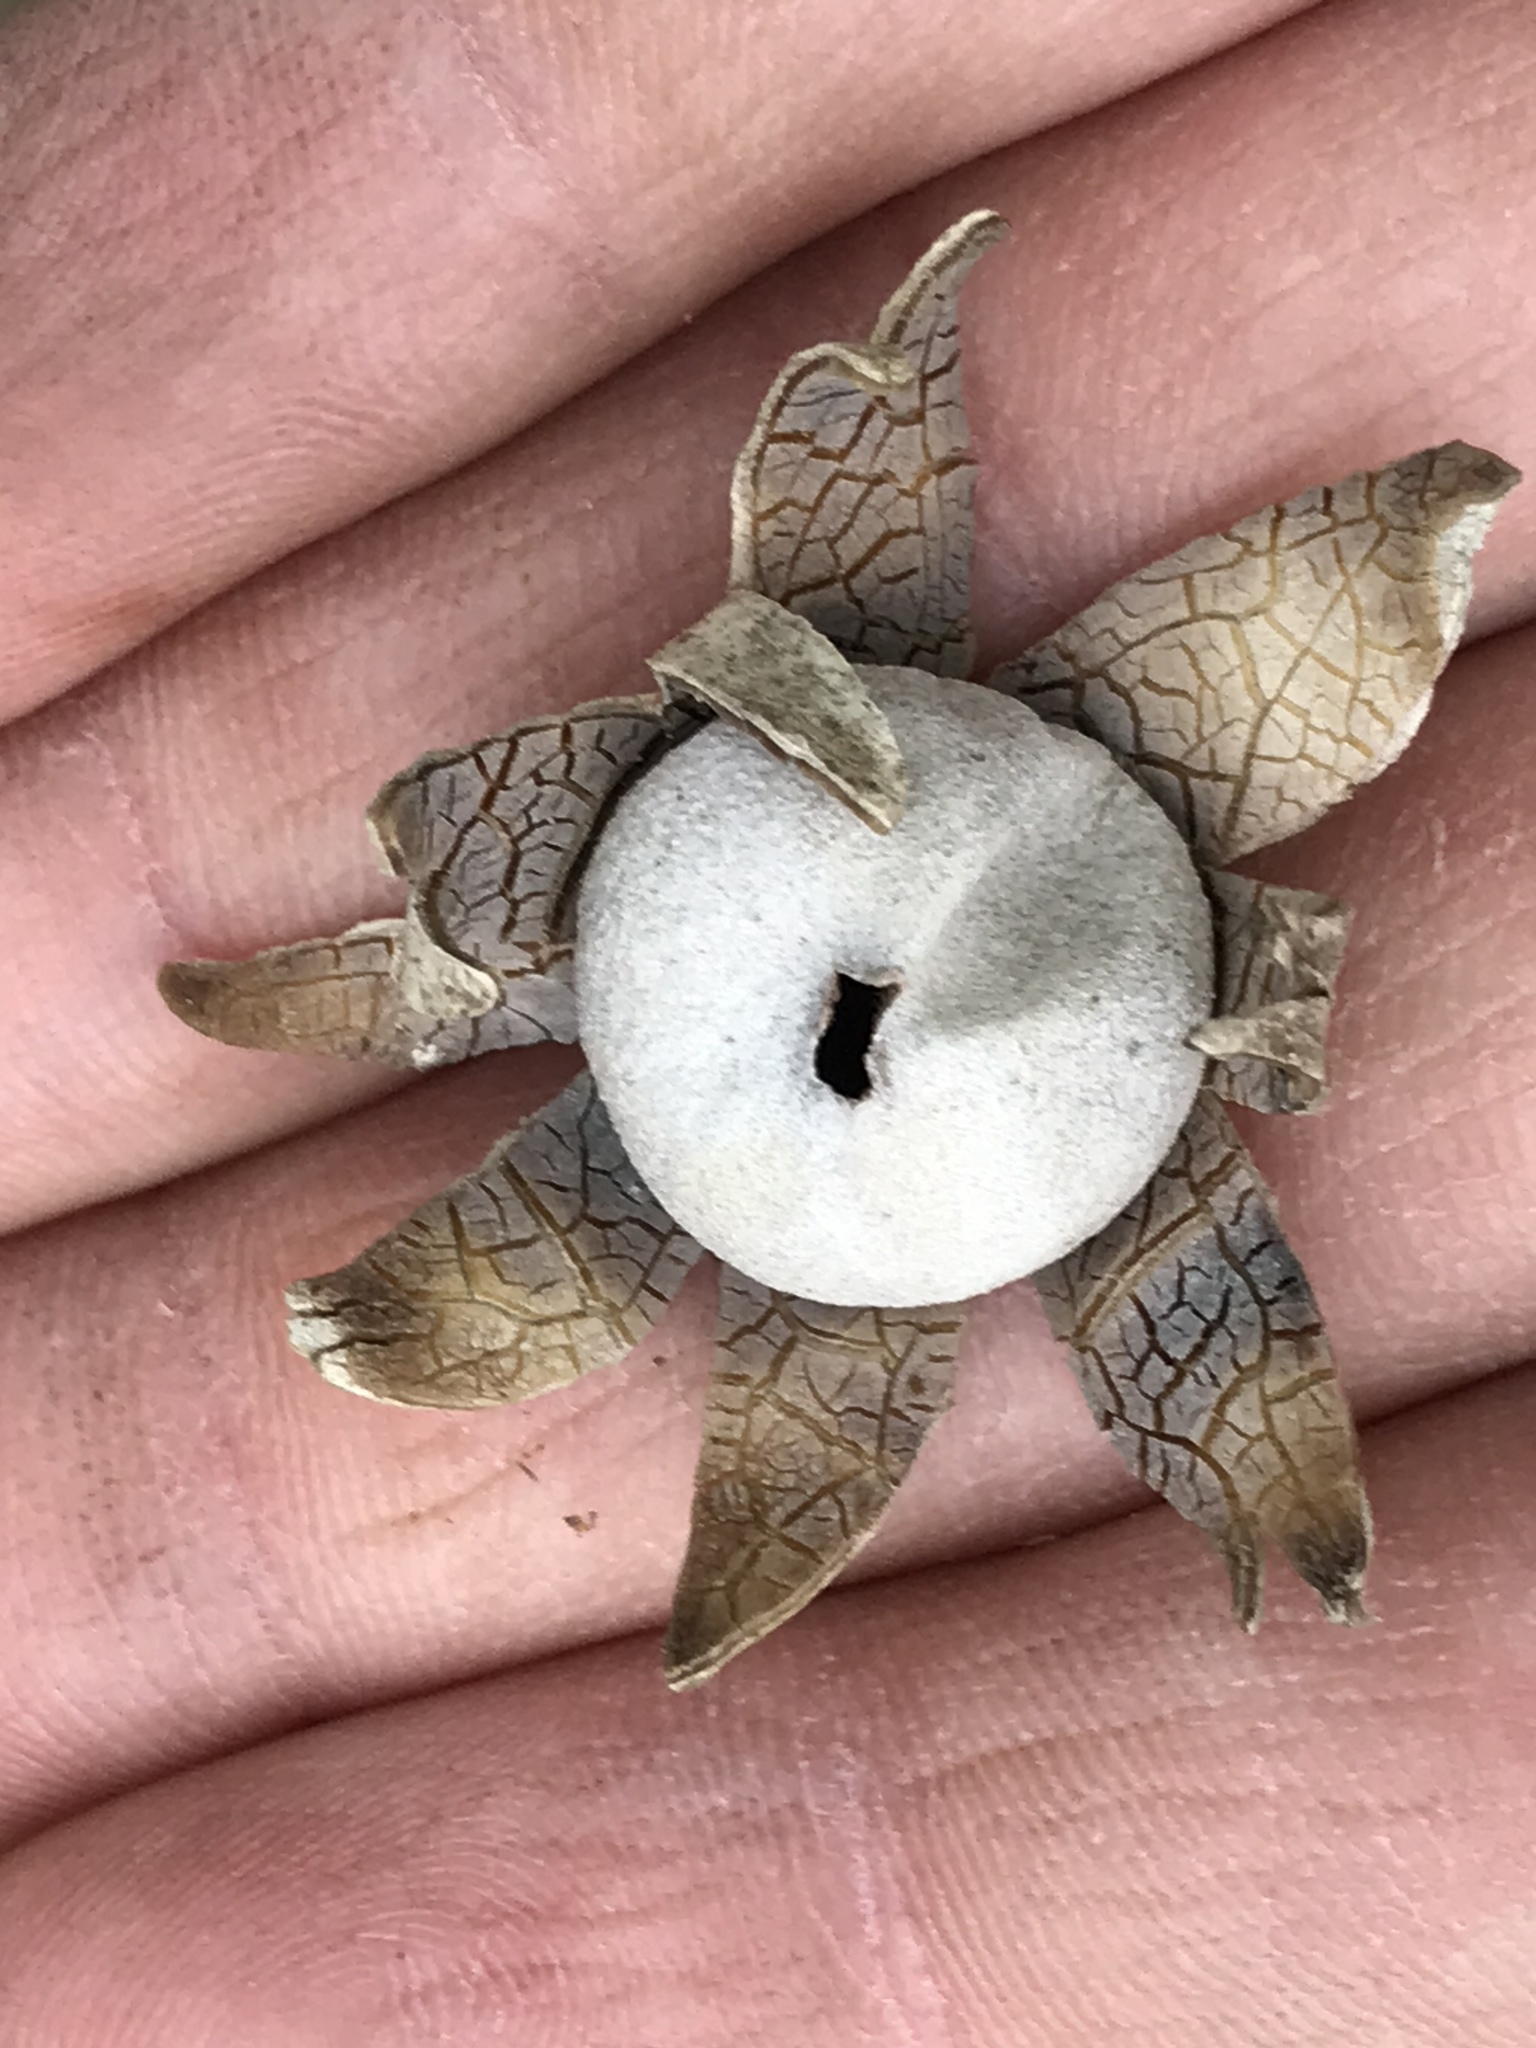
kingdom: Fungi
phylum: Basidiomycota
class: Agaricomycetes
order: Boletales
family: Diplocystidiaceae
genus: Astraeus
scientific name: Astraeus morganii
